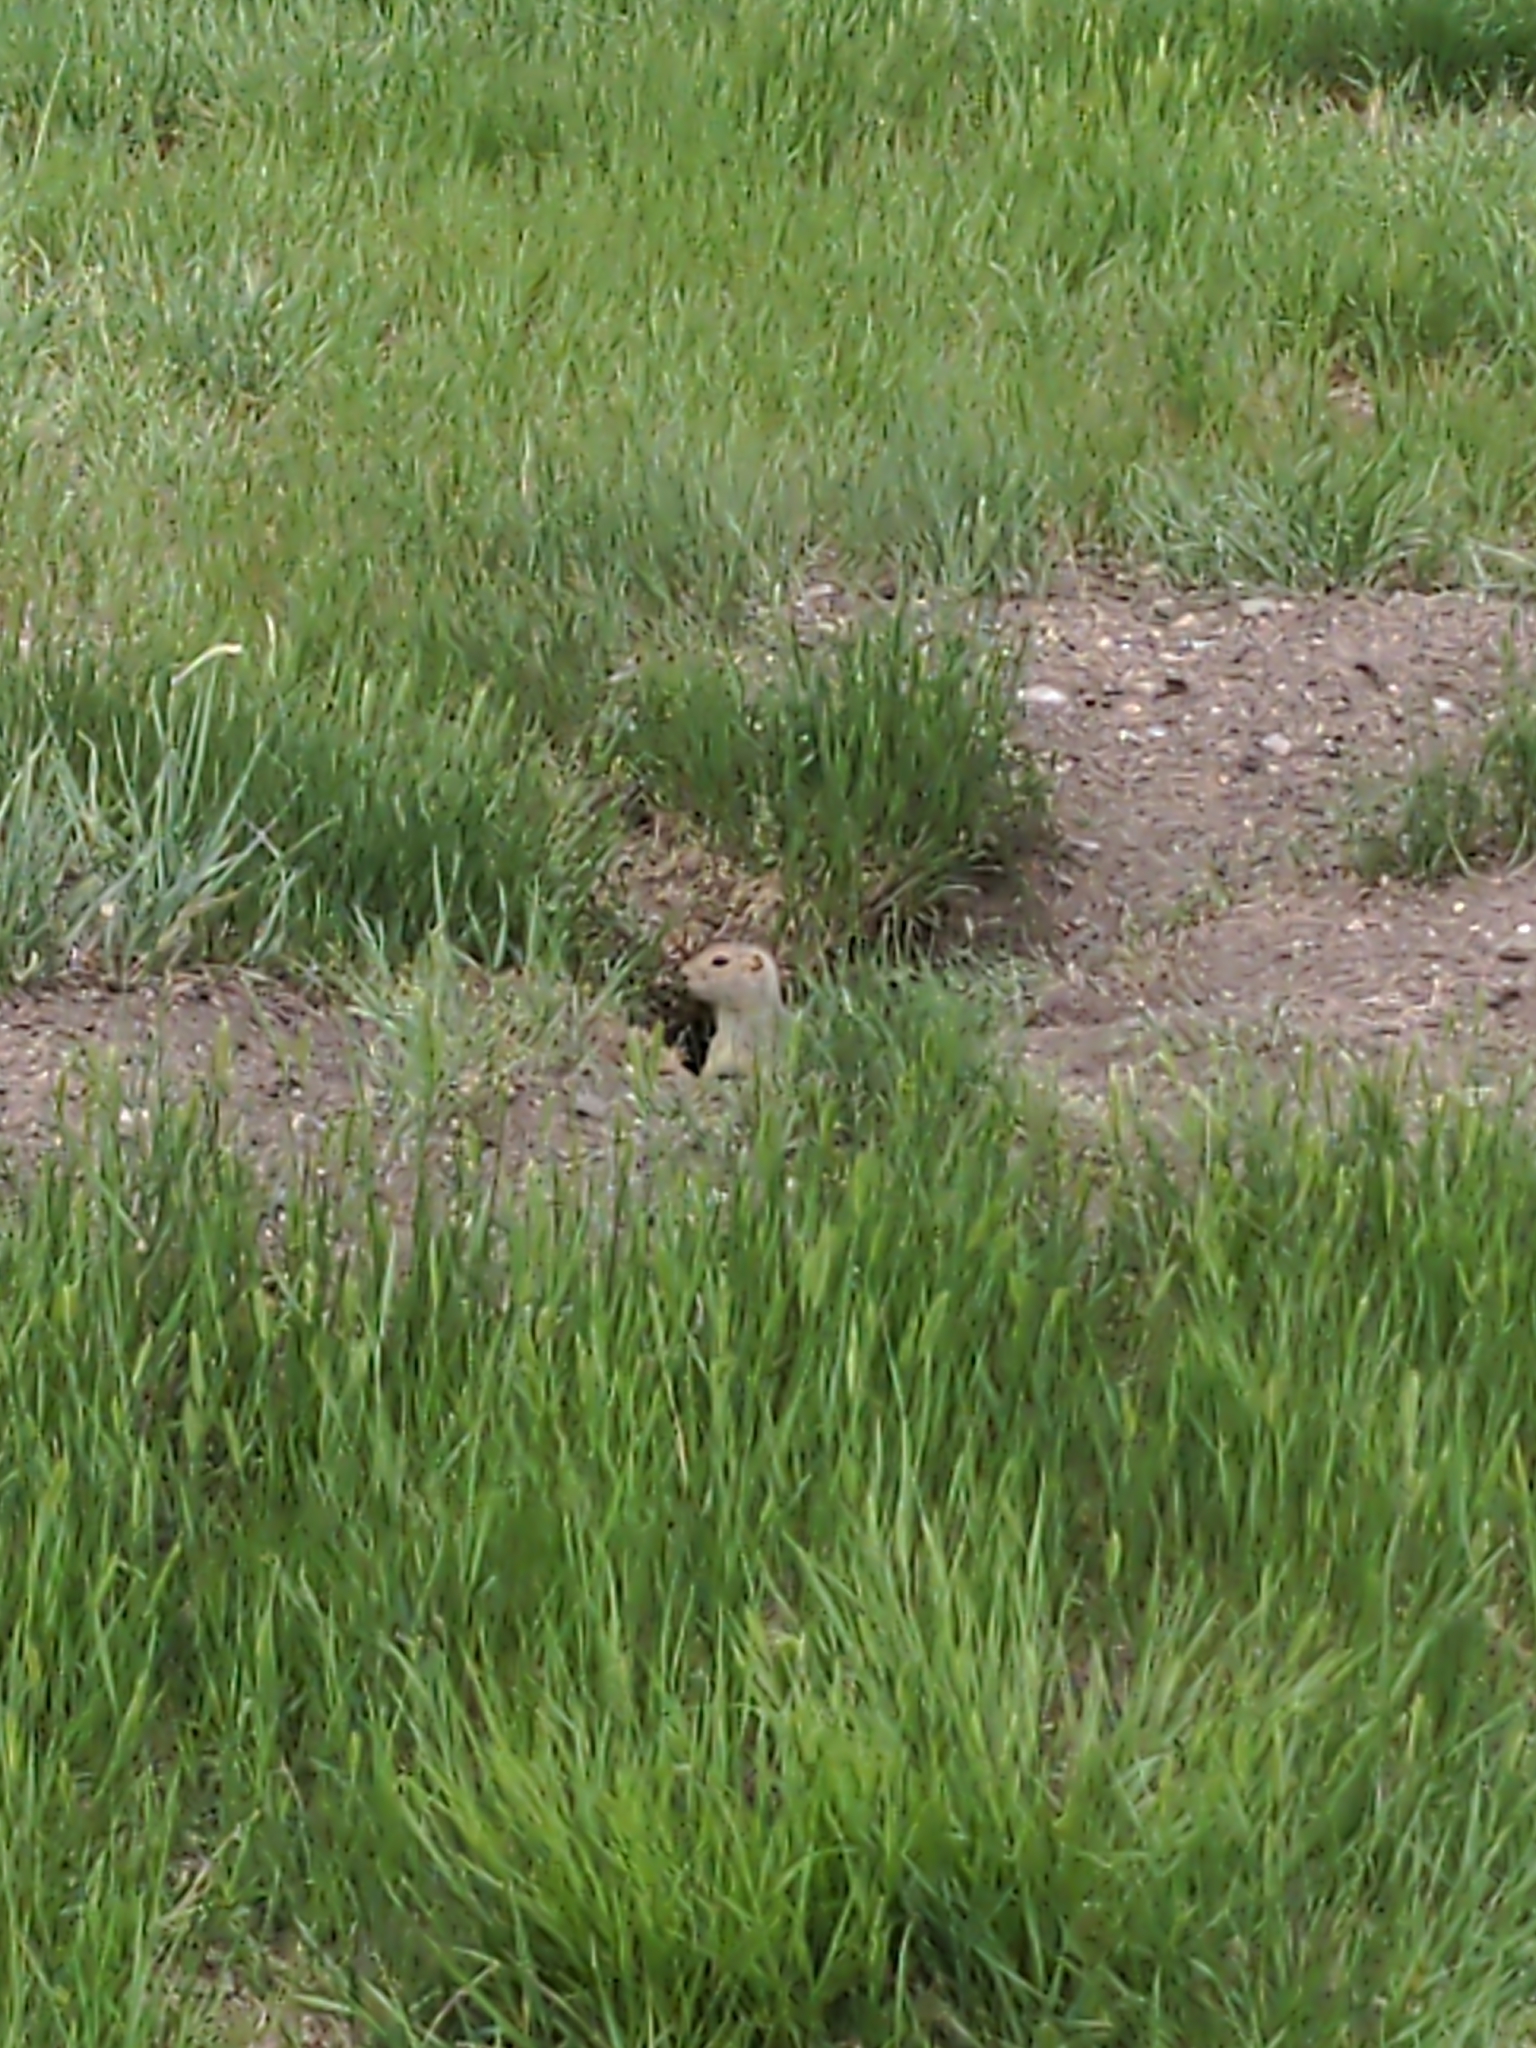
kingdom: Animalia
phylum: Chordata
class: Mammalia
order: Rodentia
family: Sciuridae
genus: Urocitellus
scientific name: Urocitellus richardsonii
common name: Richardson's ground squirrel
